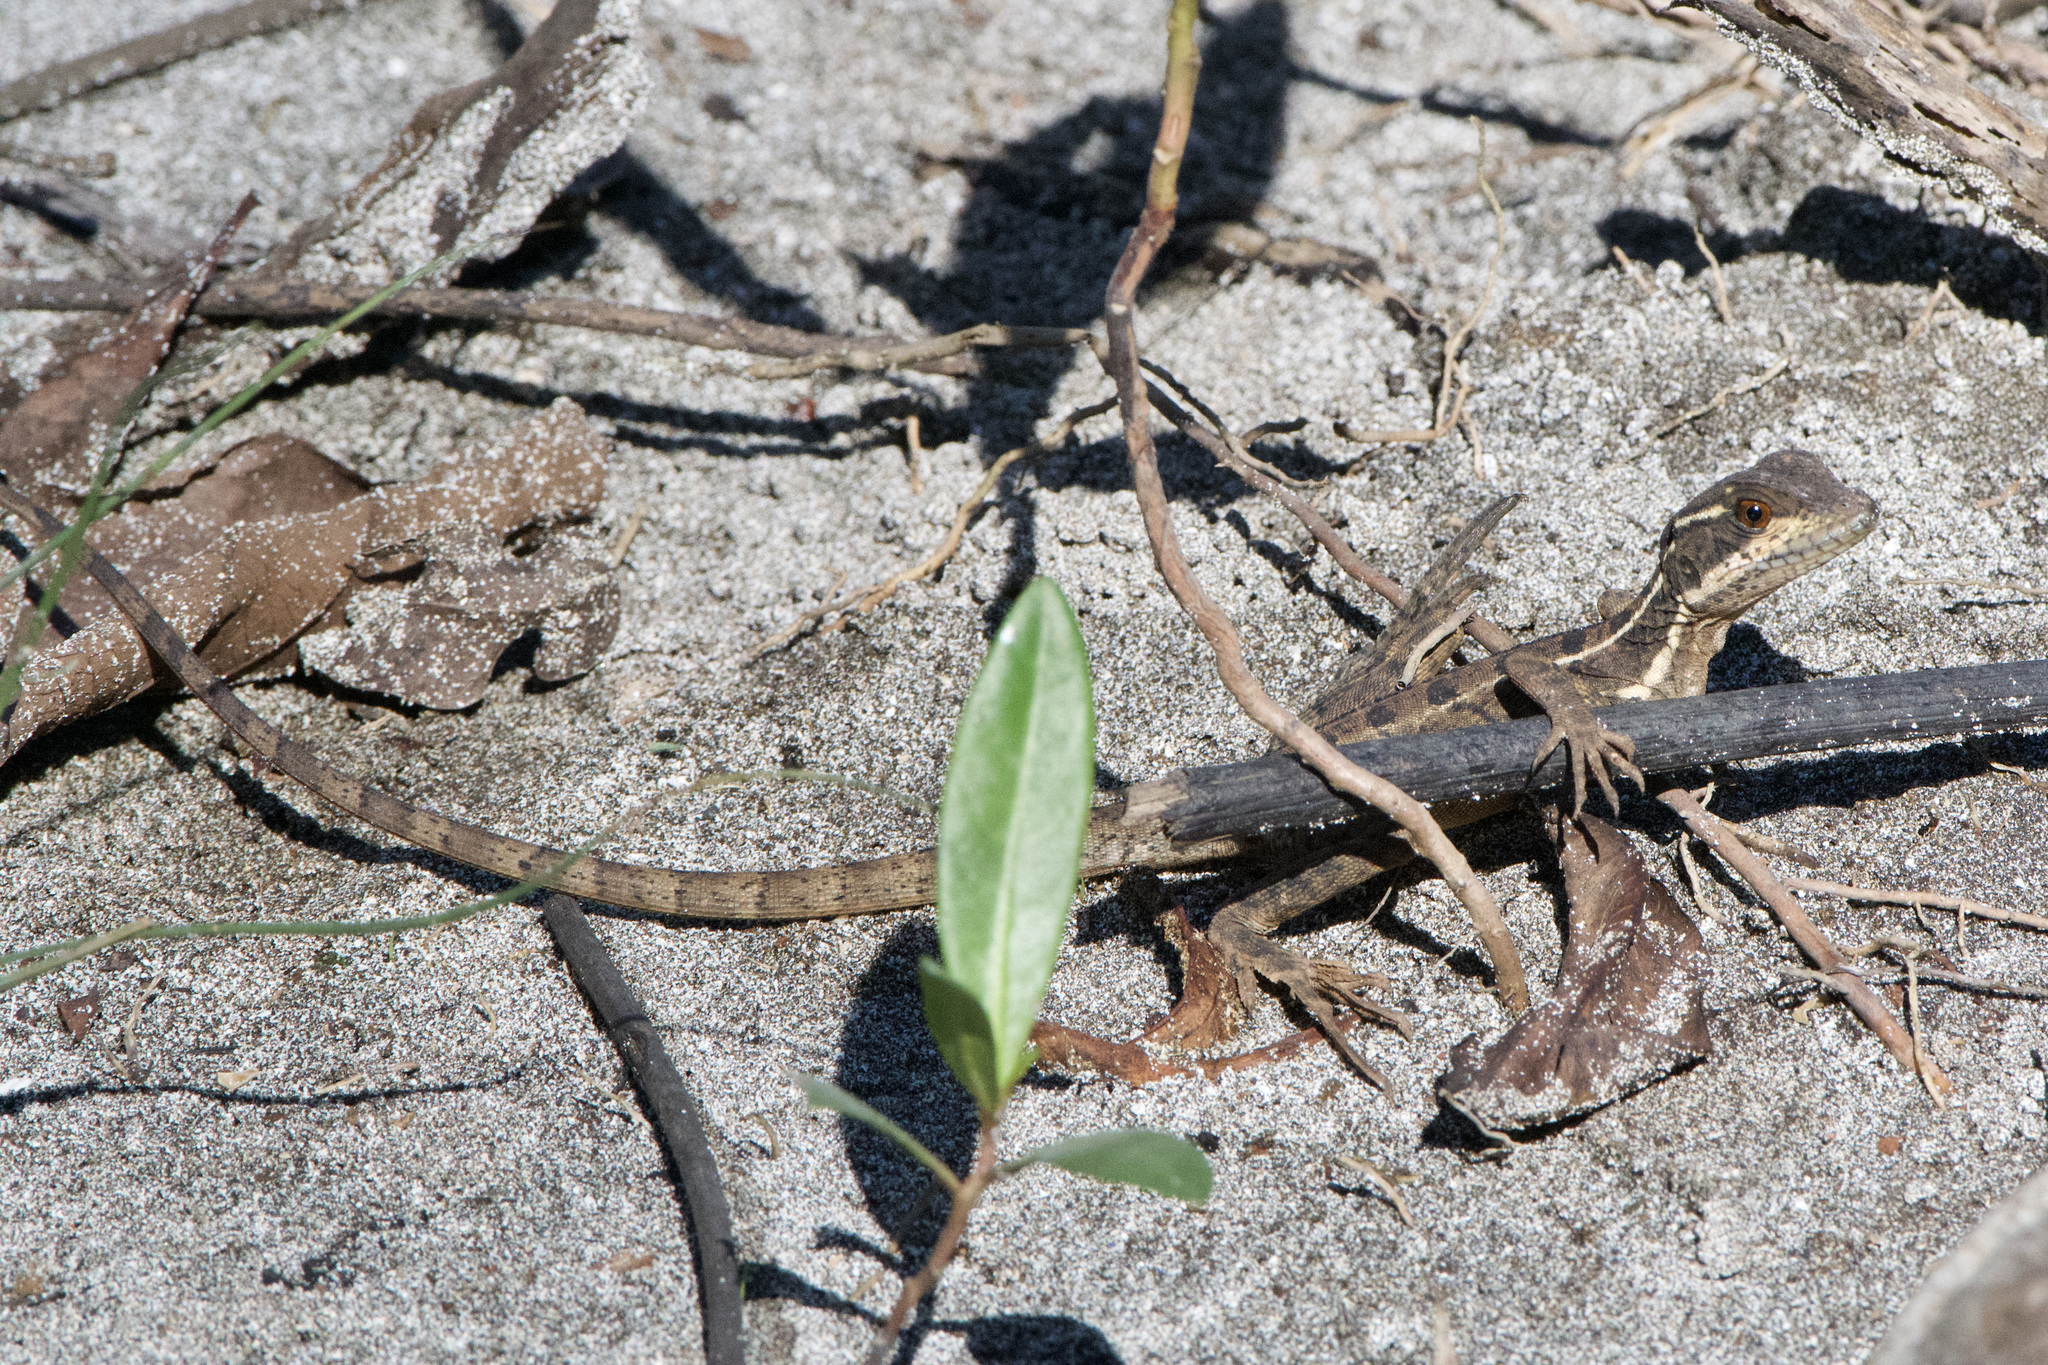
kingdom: Animalia
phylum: Chordata
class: Squamata
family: Corytophanidae
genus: Basiliscus
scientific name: Basiliscus basiliscus
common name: Common basilisk
